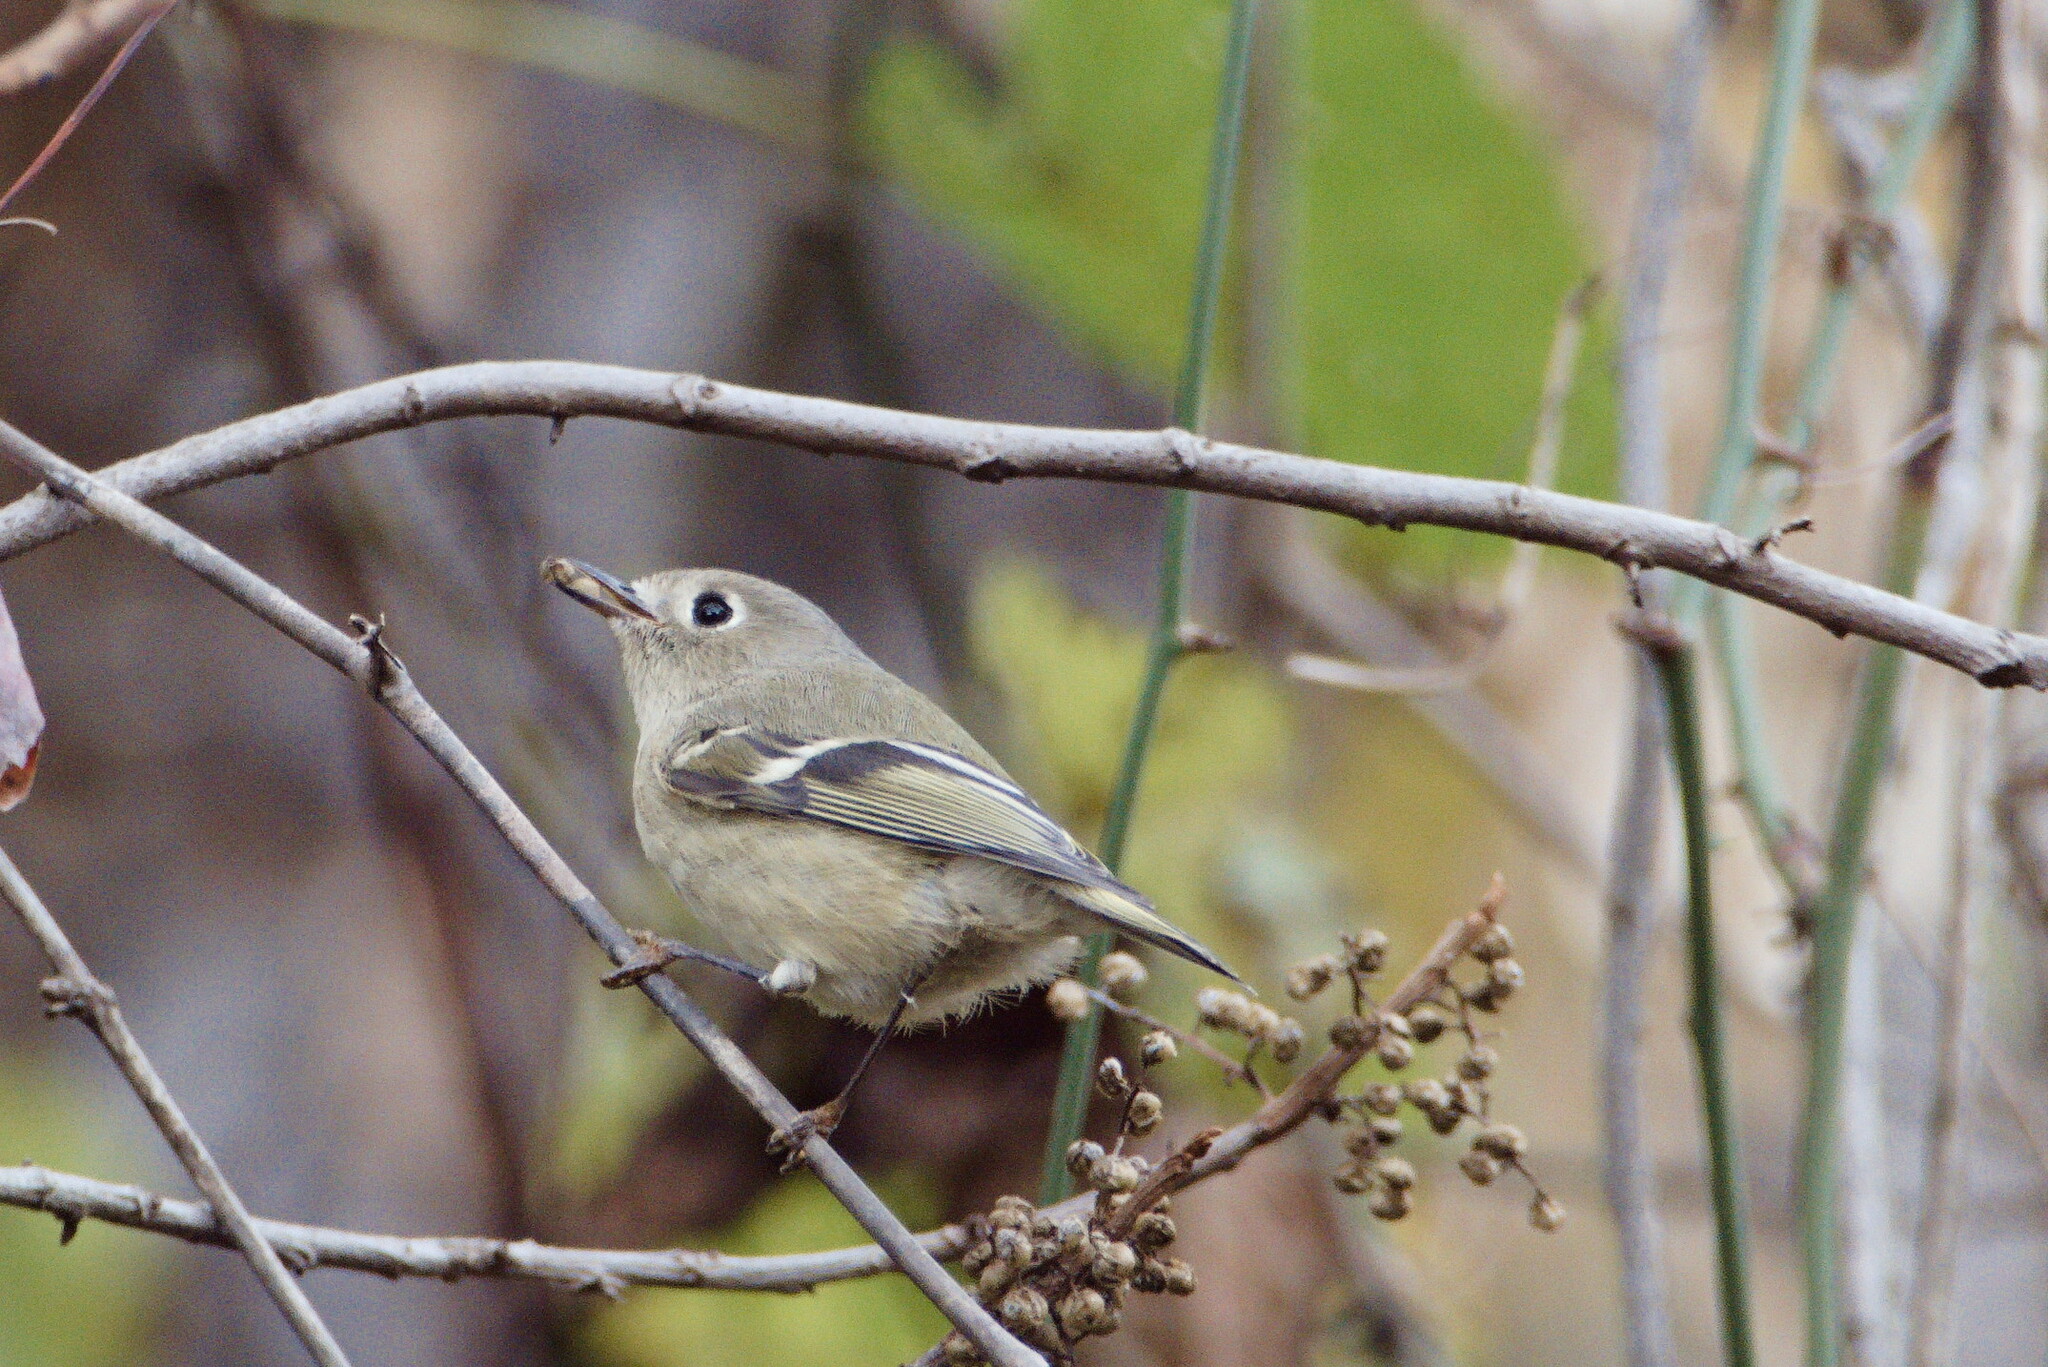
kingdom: Animalia
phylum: Chordata
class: Aves
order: Passeriformes
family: Regulidae
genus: Regulus
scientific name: Regulus calendula
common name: Ruby-crowned kinglet
